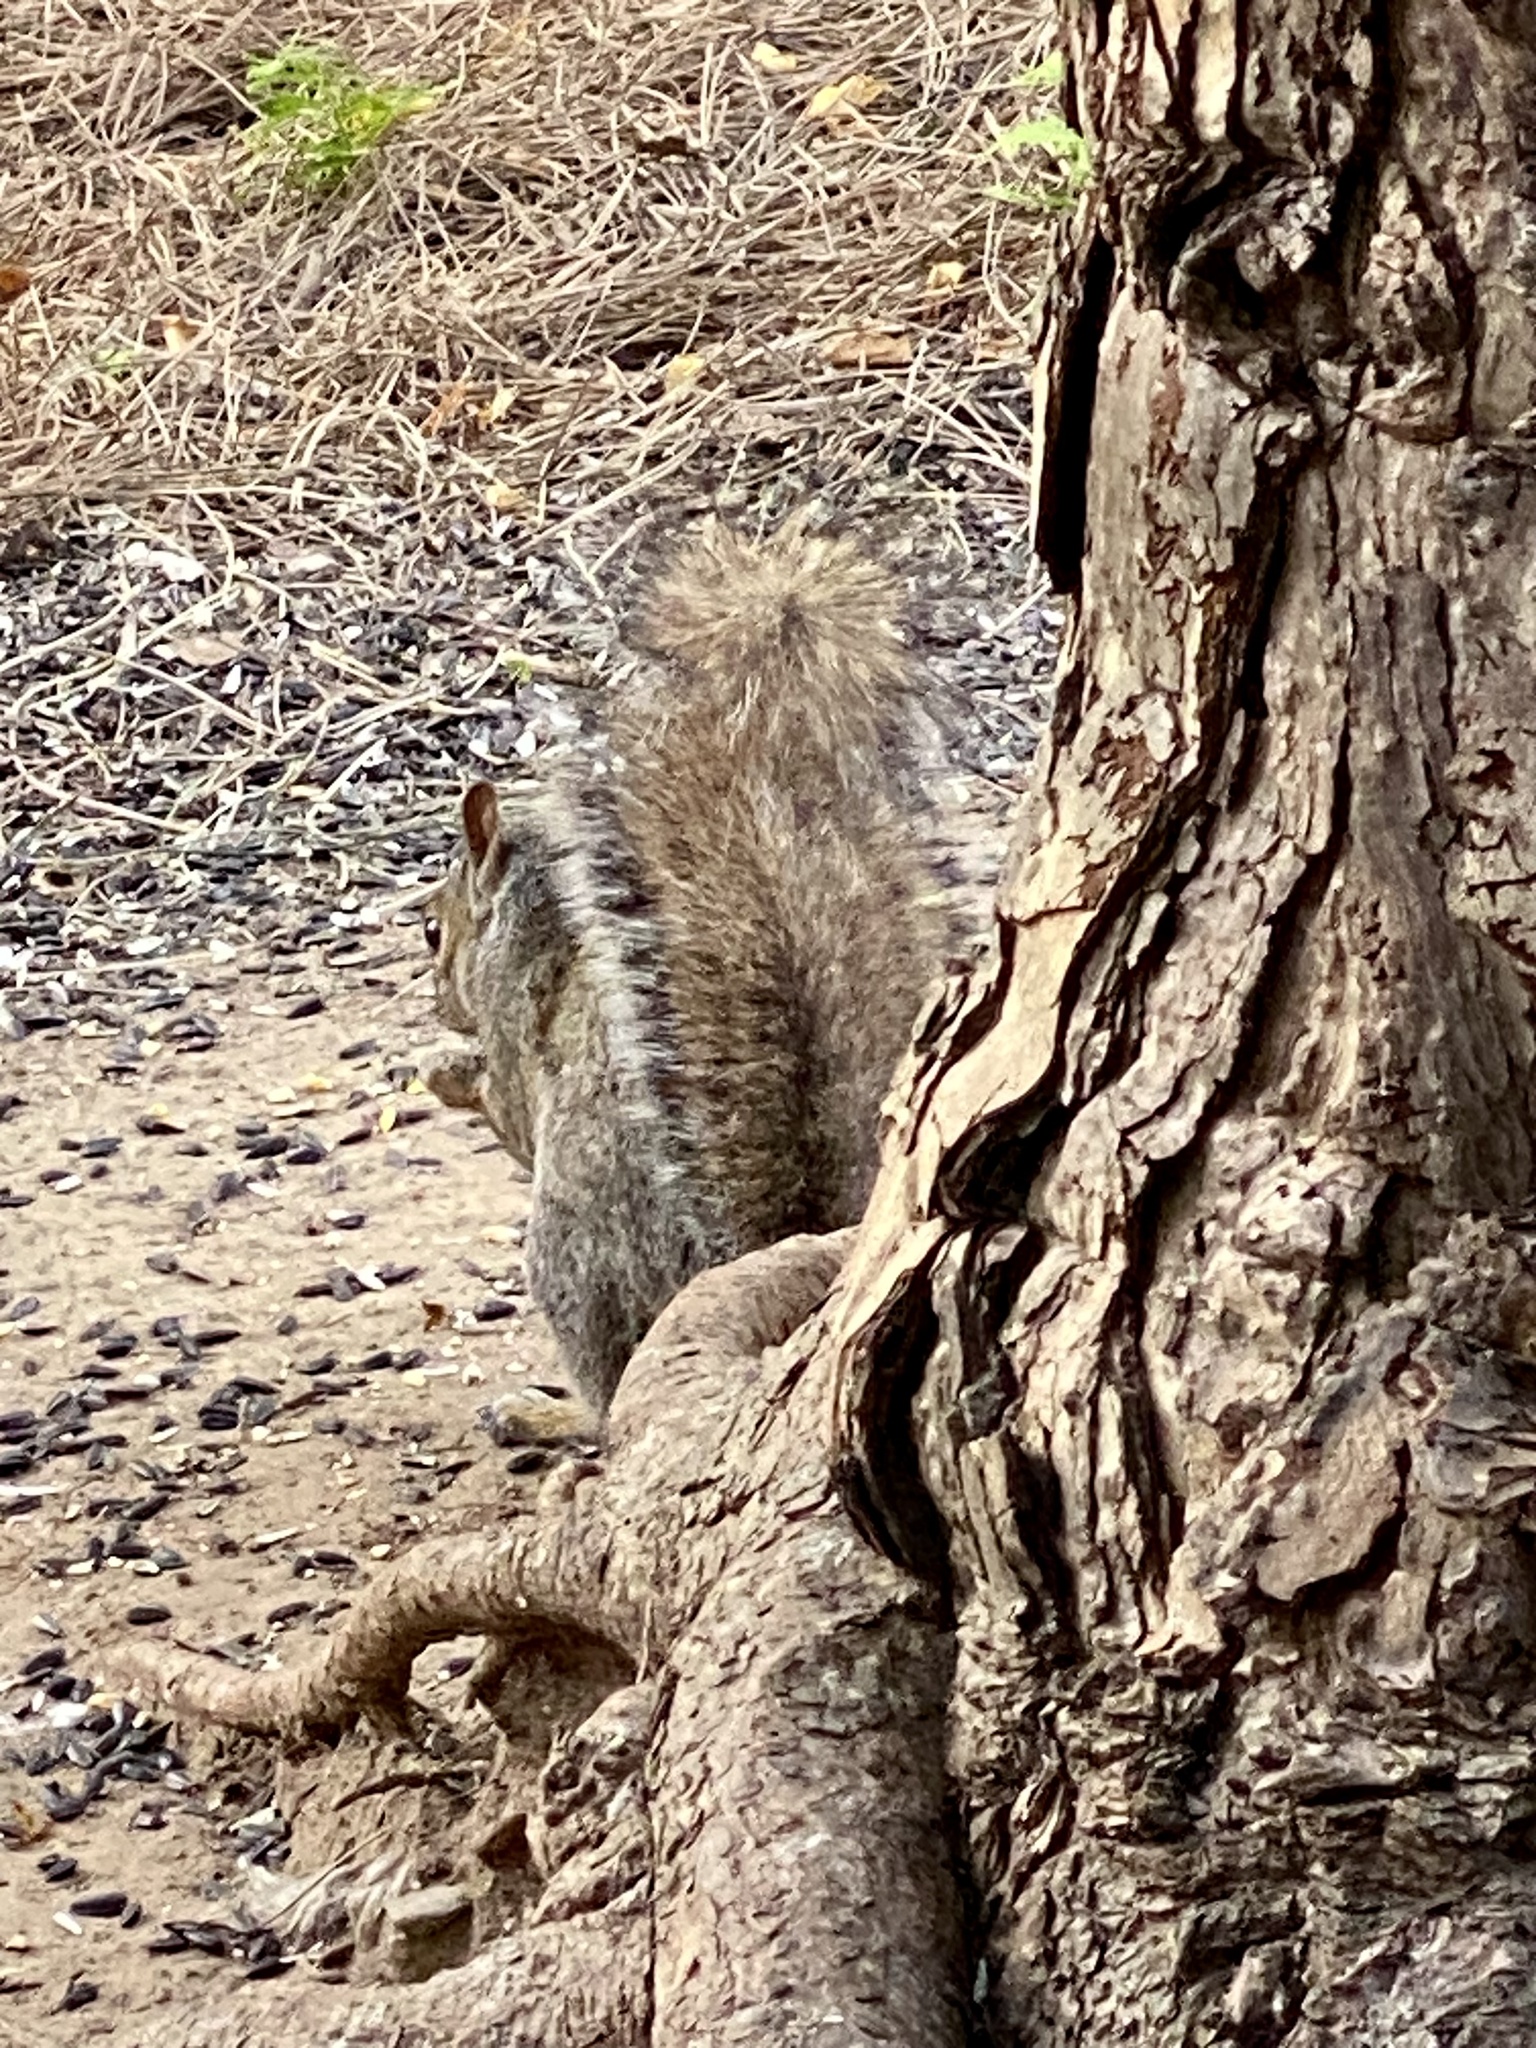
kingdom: Animalia
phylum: Chordata
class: Mammalia
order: Rodentia
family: Sciuridae
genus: Sciurus
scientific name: Sciurus carolinensis
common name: Eastern gray squirrel
